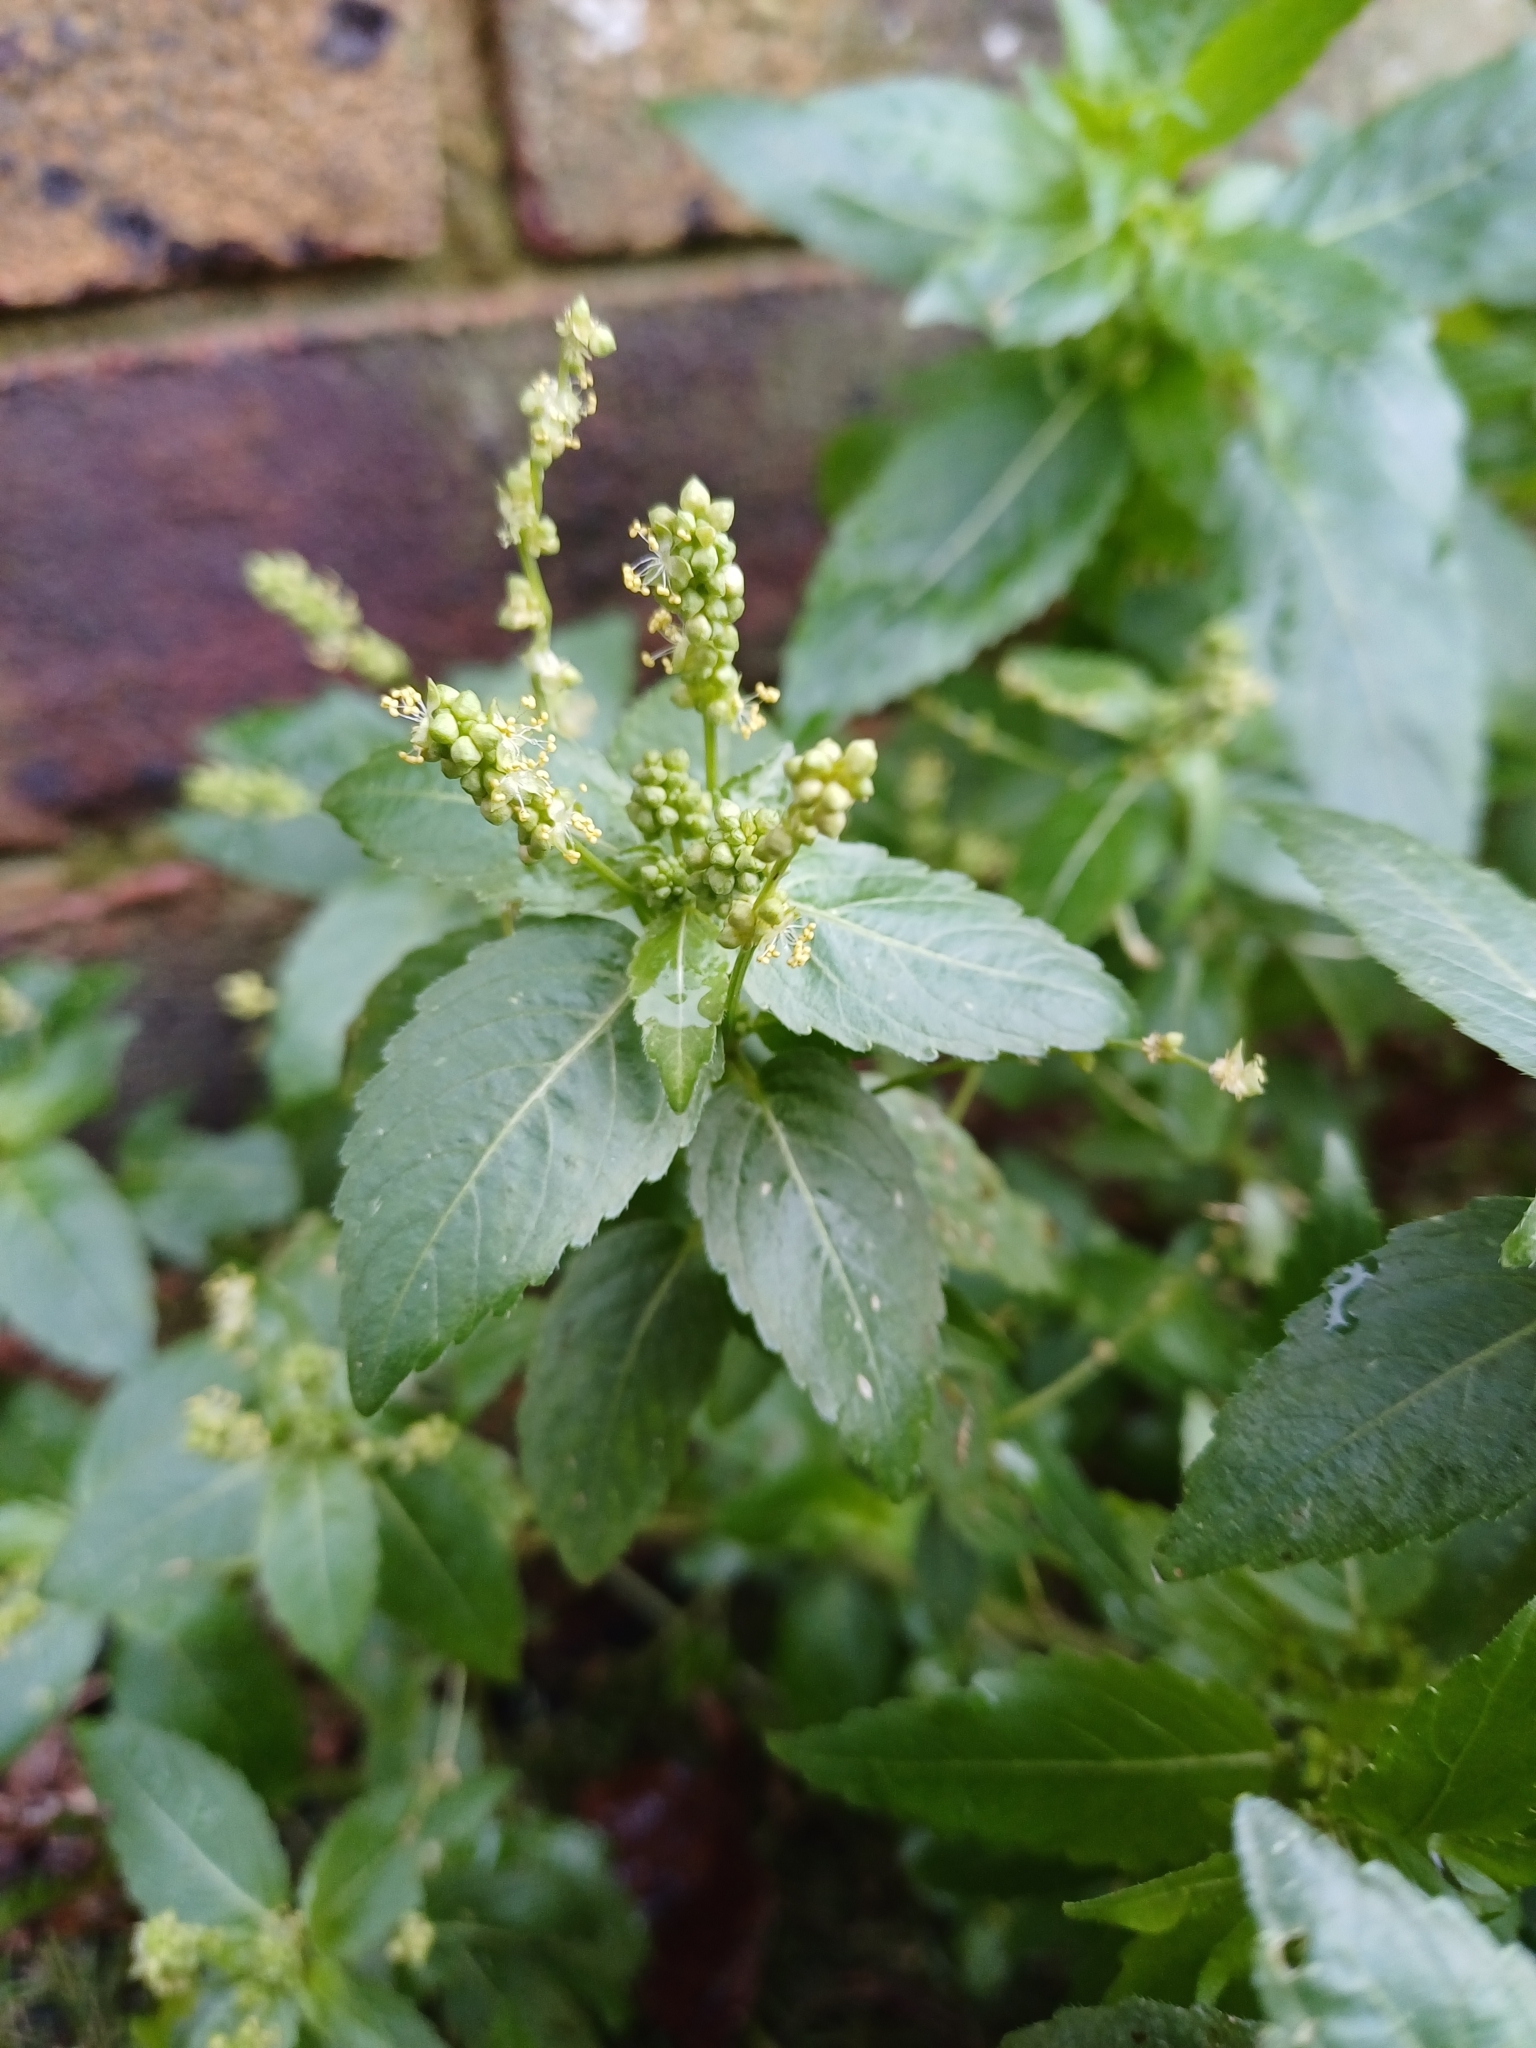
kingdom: Plantae
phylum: Tracheophyta
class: Magnoliopsida
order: Malpighiales
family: Euphorbiaceae
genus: Mercurialis
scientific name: Mercurialis annua
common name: Annual mercury
